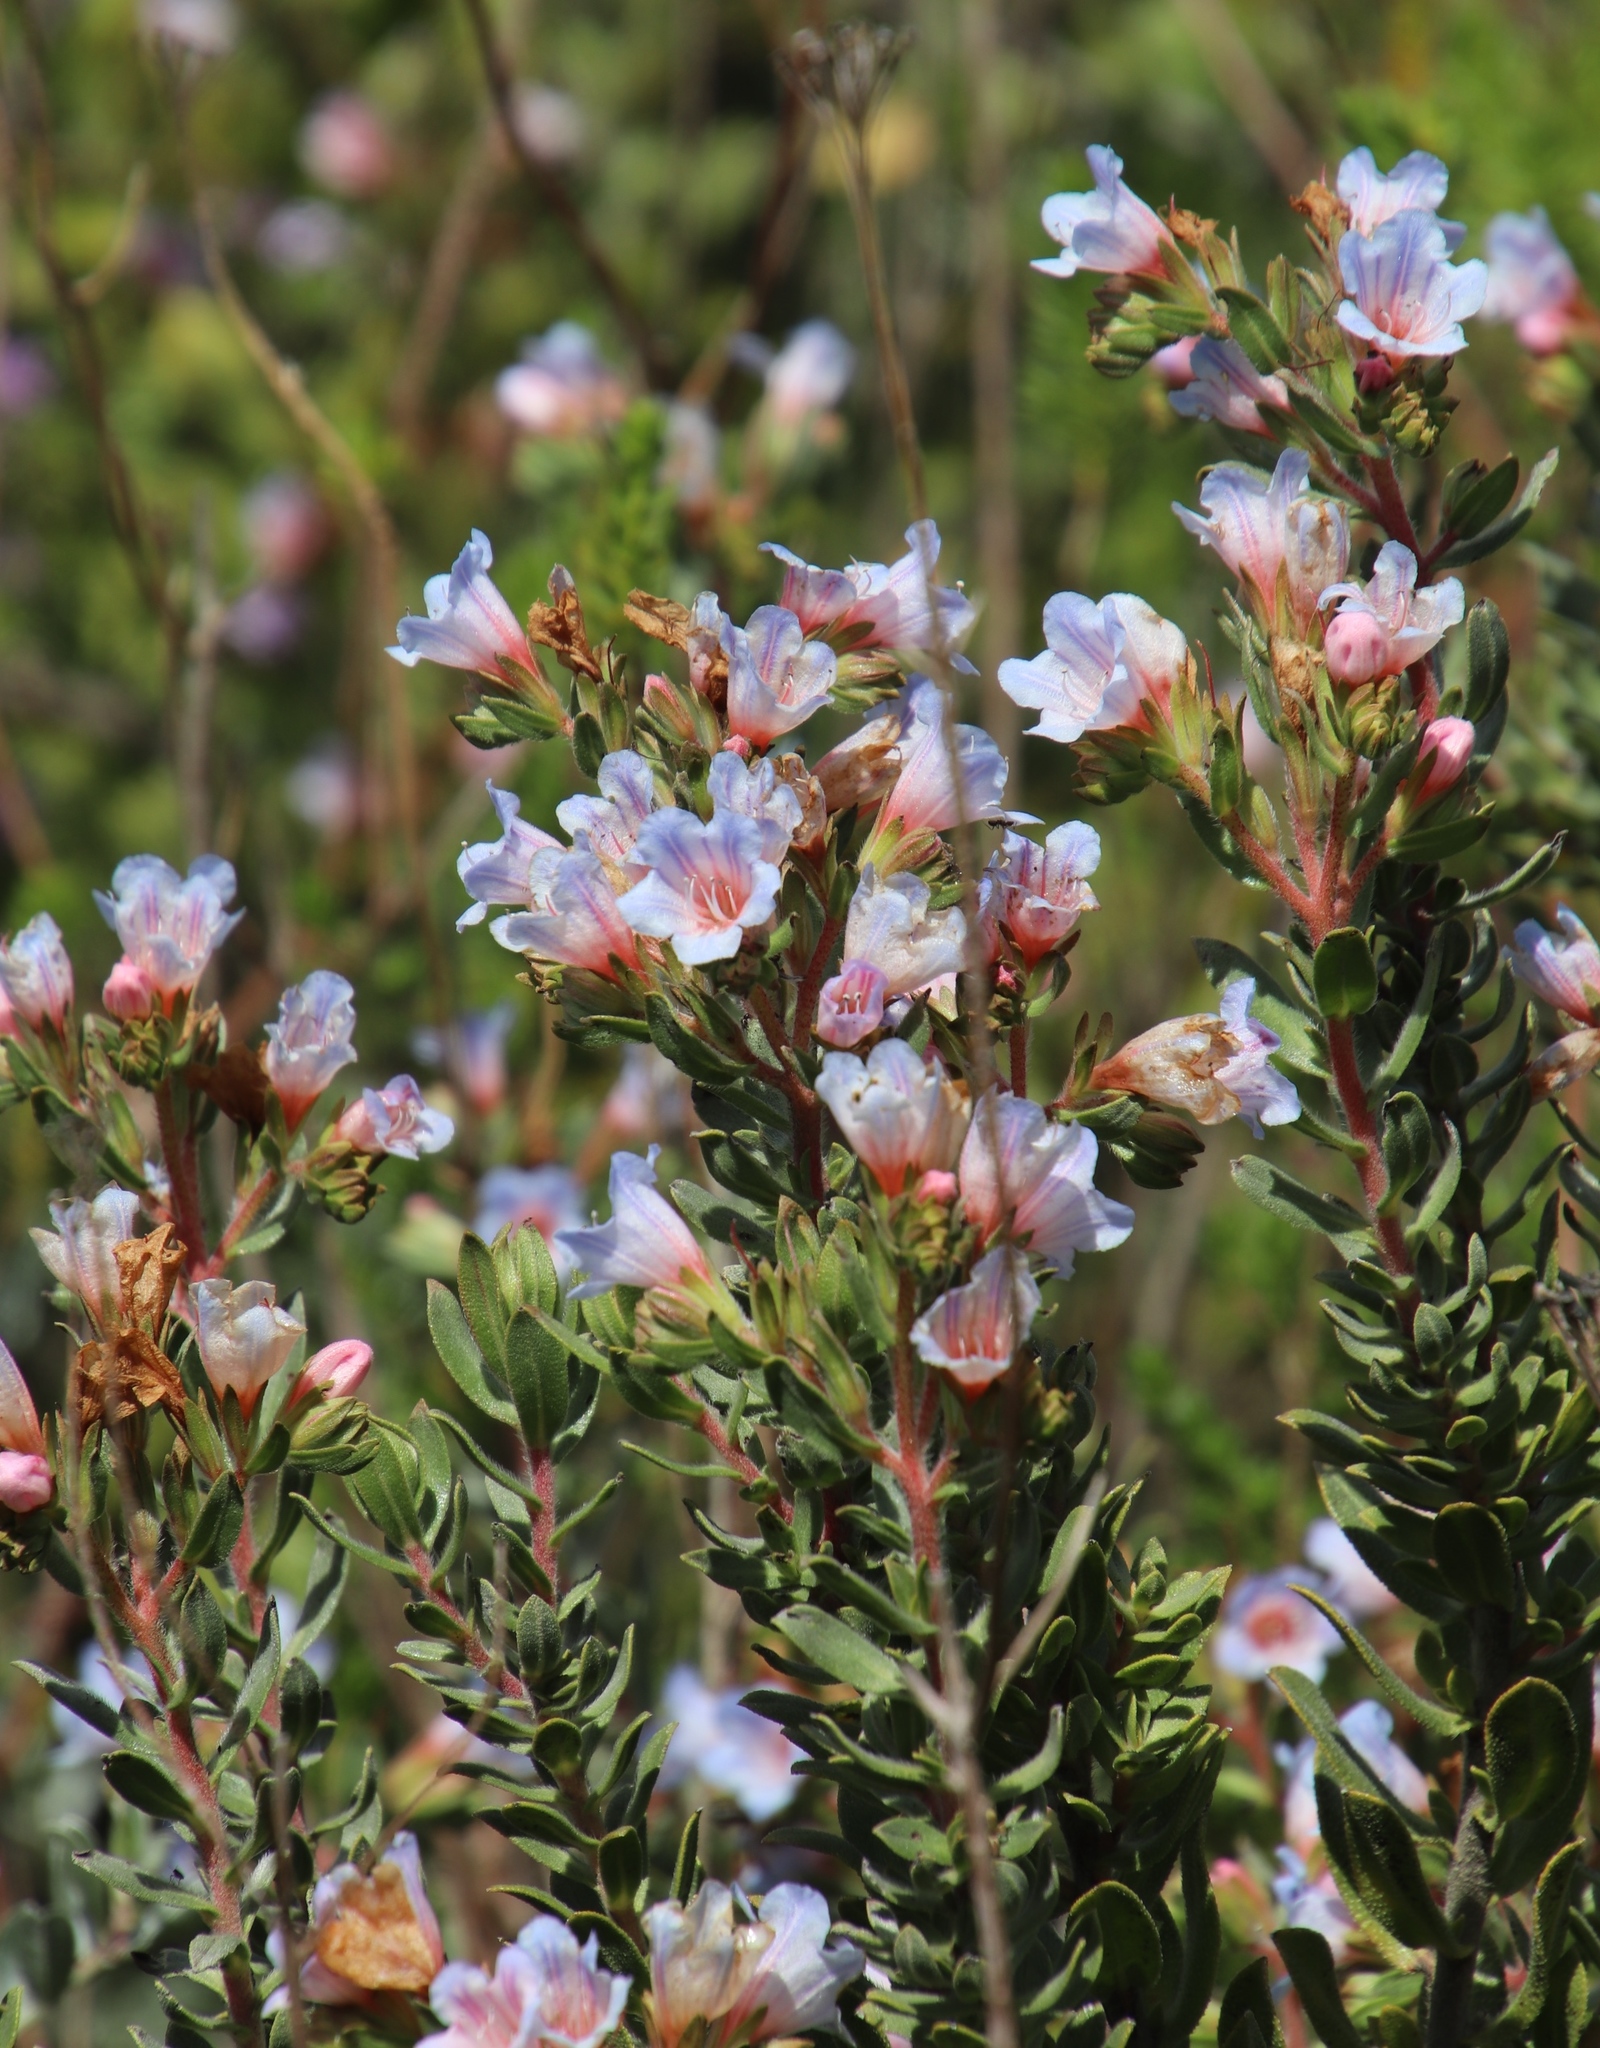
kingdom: Plantae
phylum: Tracheophyta
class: Magnoliopsida
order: Boraginales
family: Boraginaceae
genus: Lobostemon
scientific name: Lobostemon fruticosus
